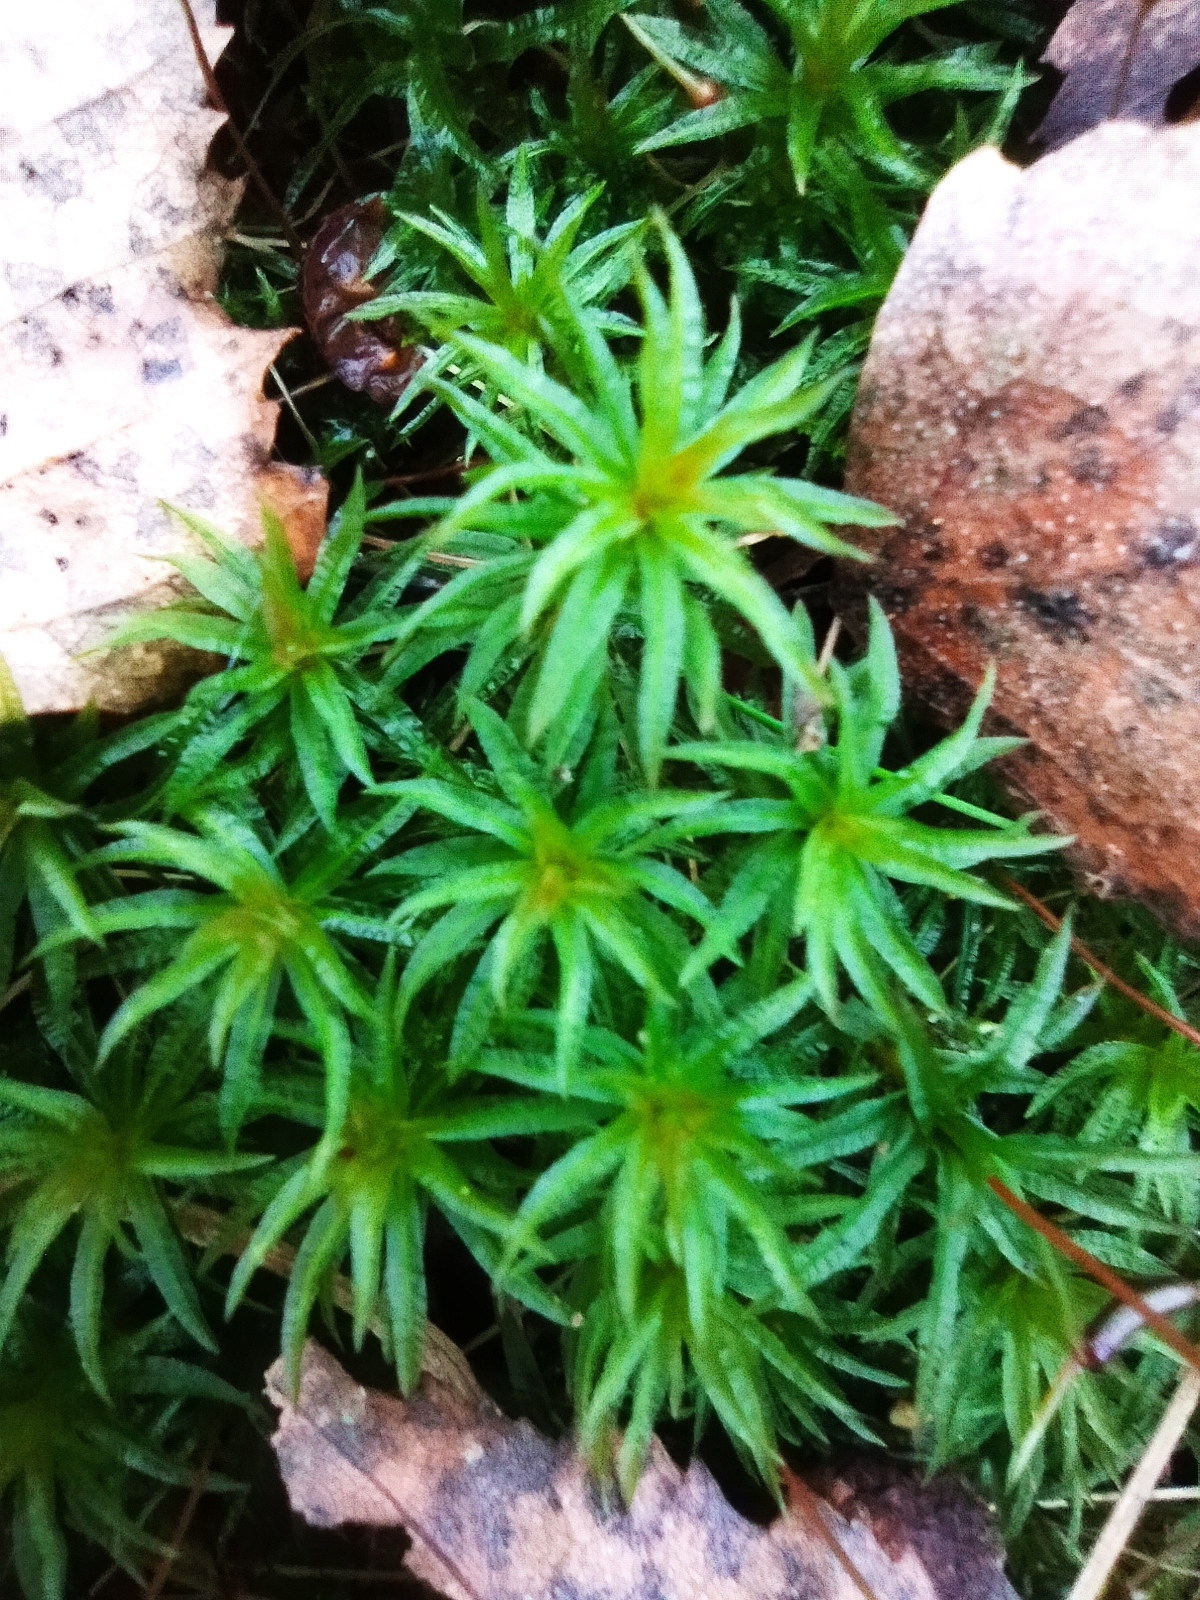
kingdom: Plantae
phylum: Bryophyta
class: Polytrichopsida
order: Polytrichales
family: Polytrichaceae
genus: Atrichum
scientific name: Atrichum undulatum
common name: Common smoothcap
